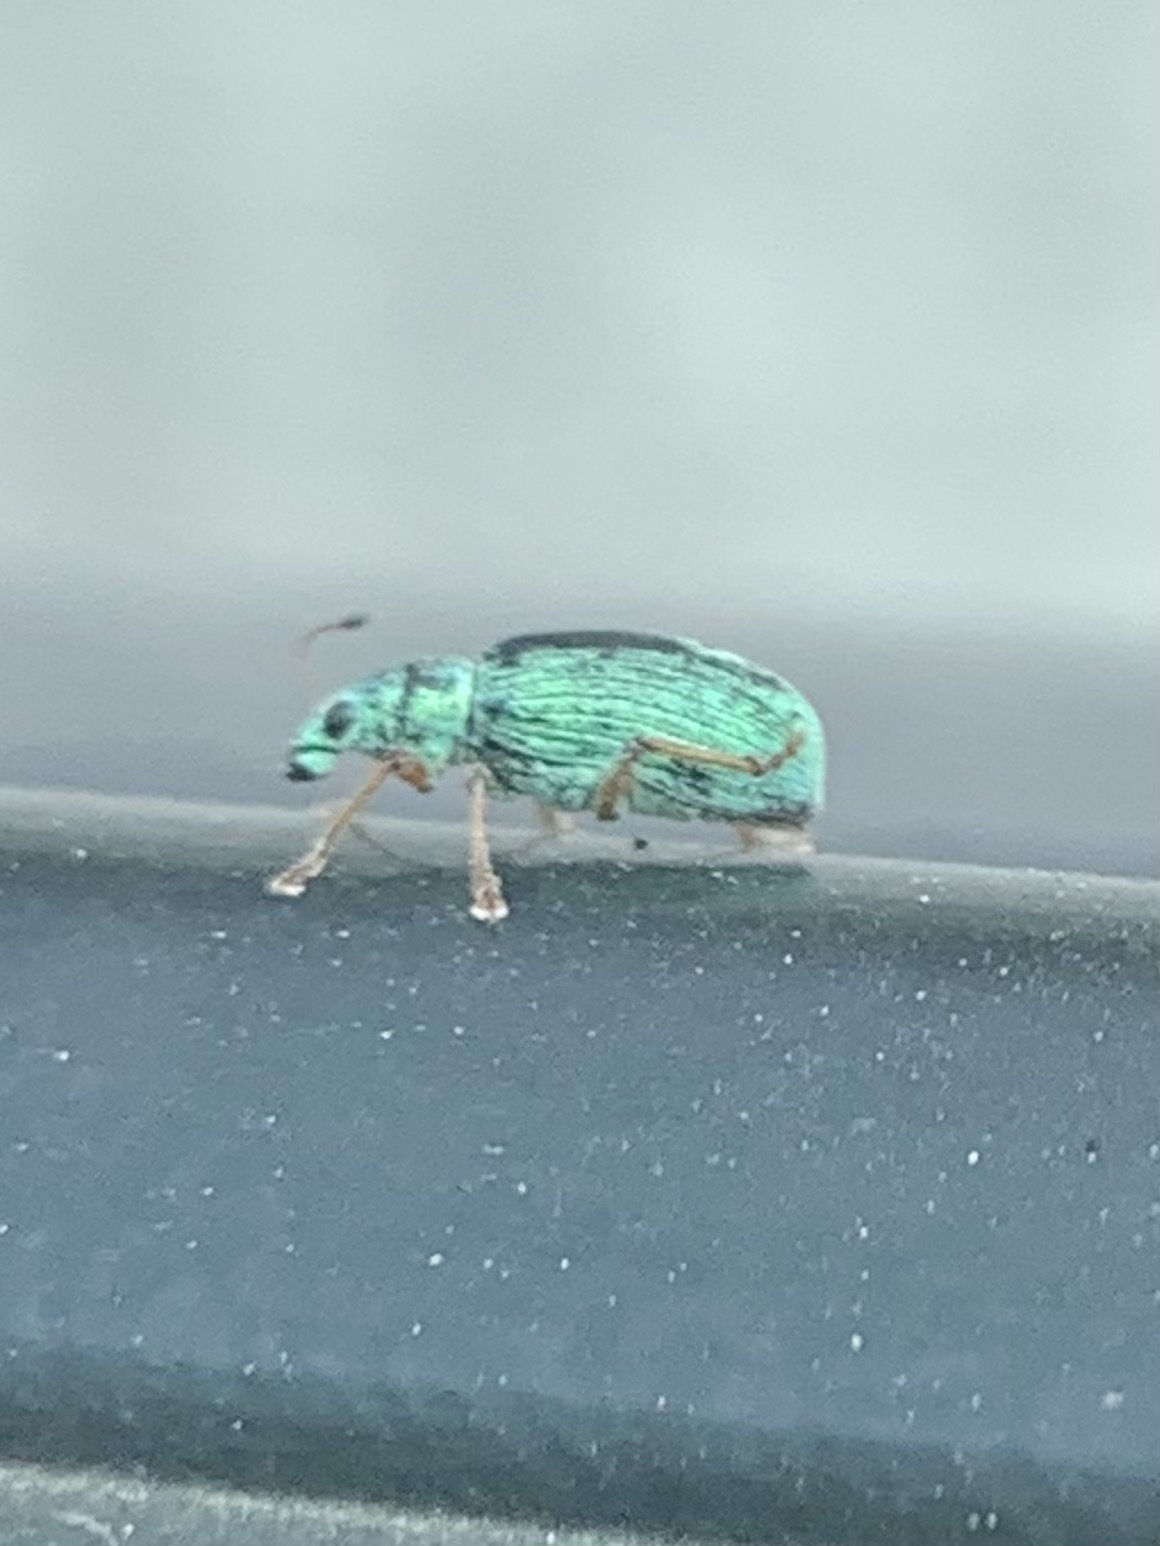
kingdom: Animalia
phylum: Arthropoda
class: Insecta
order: Coleoptera
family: Curculionidae
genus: Polydrusus
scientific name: Polydrusus formosus
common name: Weevil
